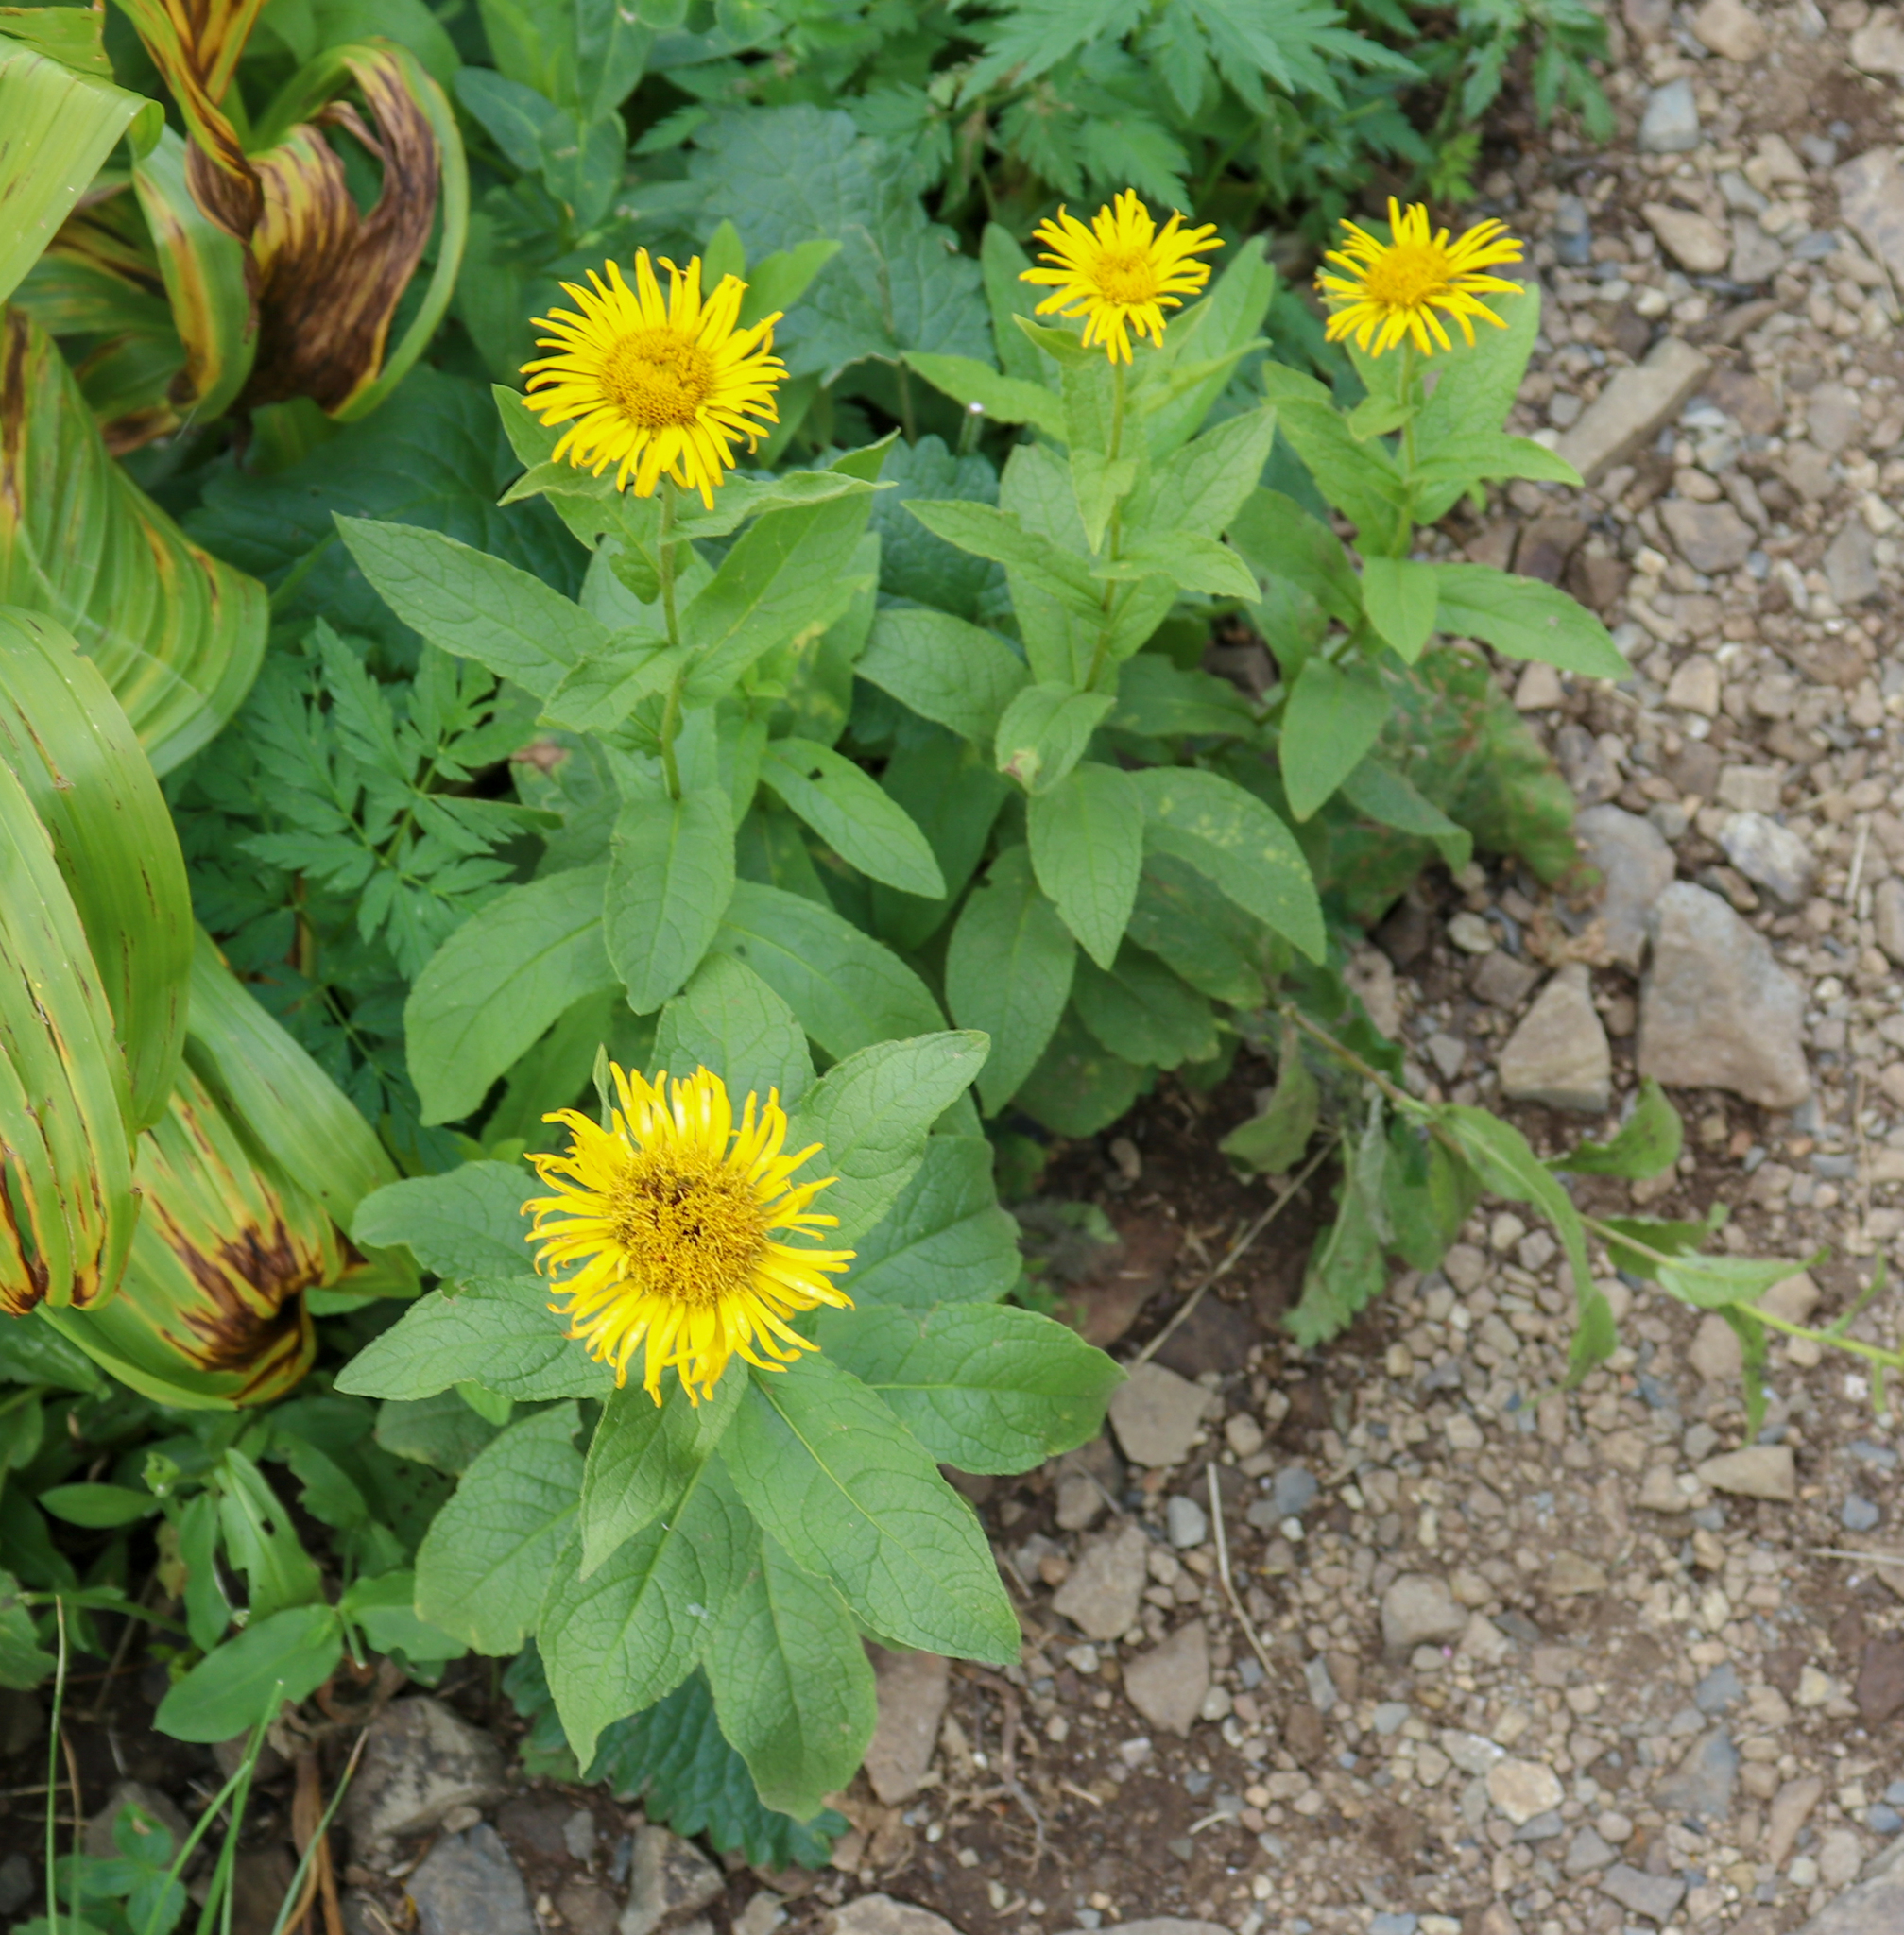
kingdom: Plantae
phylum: Tracheophyta
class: Magnoliopsida
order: Asterales
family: Asteraceae
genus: Pentanema
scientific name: Pentanema orientale
